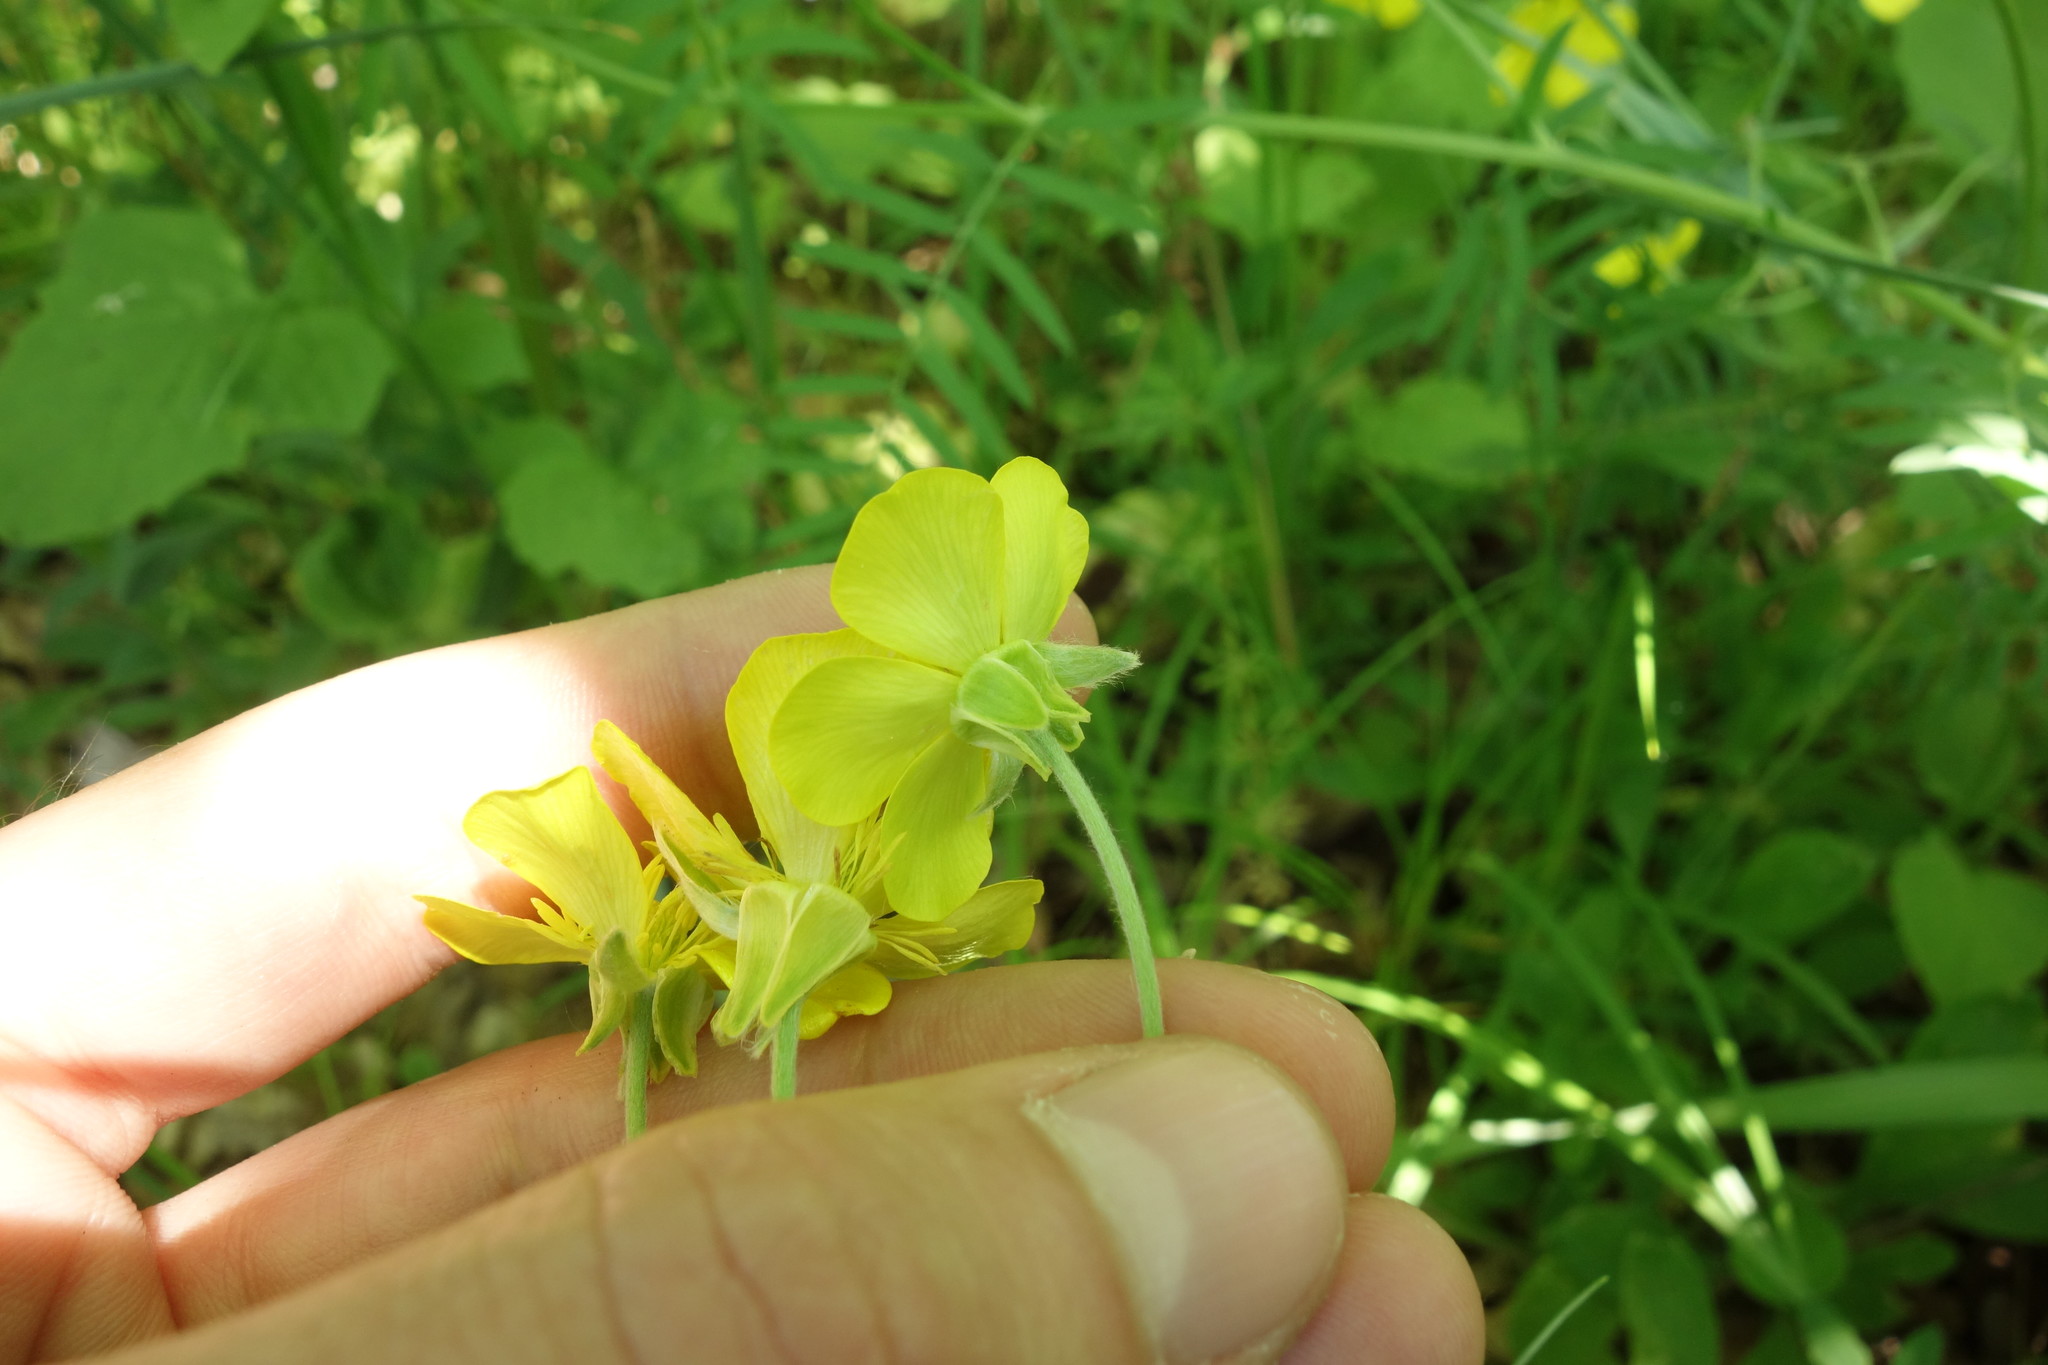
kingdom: Plantae
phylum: Tracheophyta
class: Magnoliopsida
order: Ranunculales
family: Ranunculaceae
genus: Ranunculus
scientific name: Ranunculus illyricus
